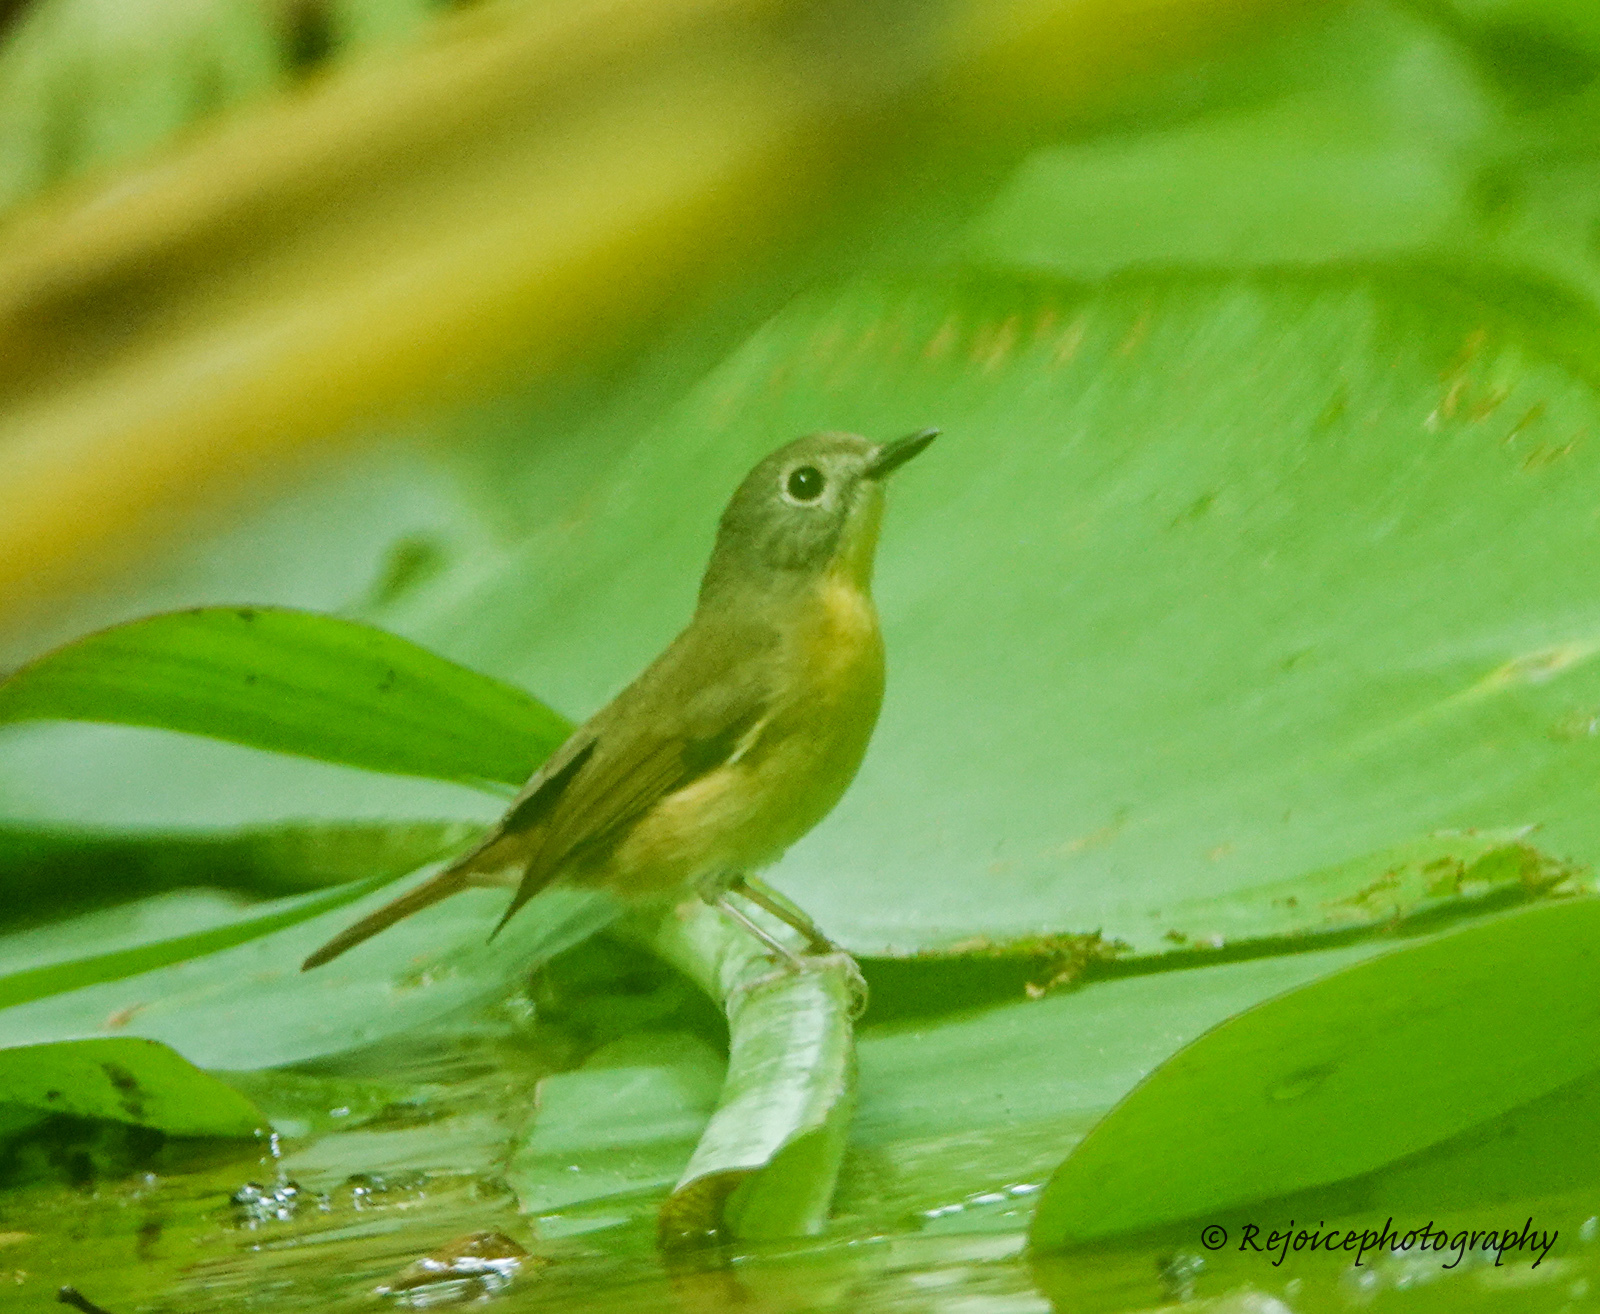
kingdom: Animalia
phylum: Chordata
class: Aves
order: Passeriformes
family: Muscicapidae
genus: Cyornis
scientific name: Cyornis poliogenys
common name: Pale-chinned blue flycatcher
